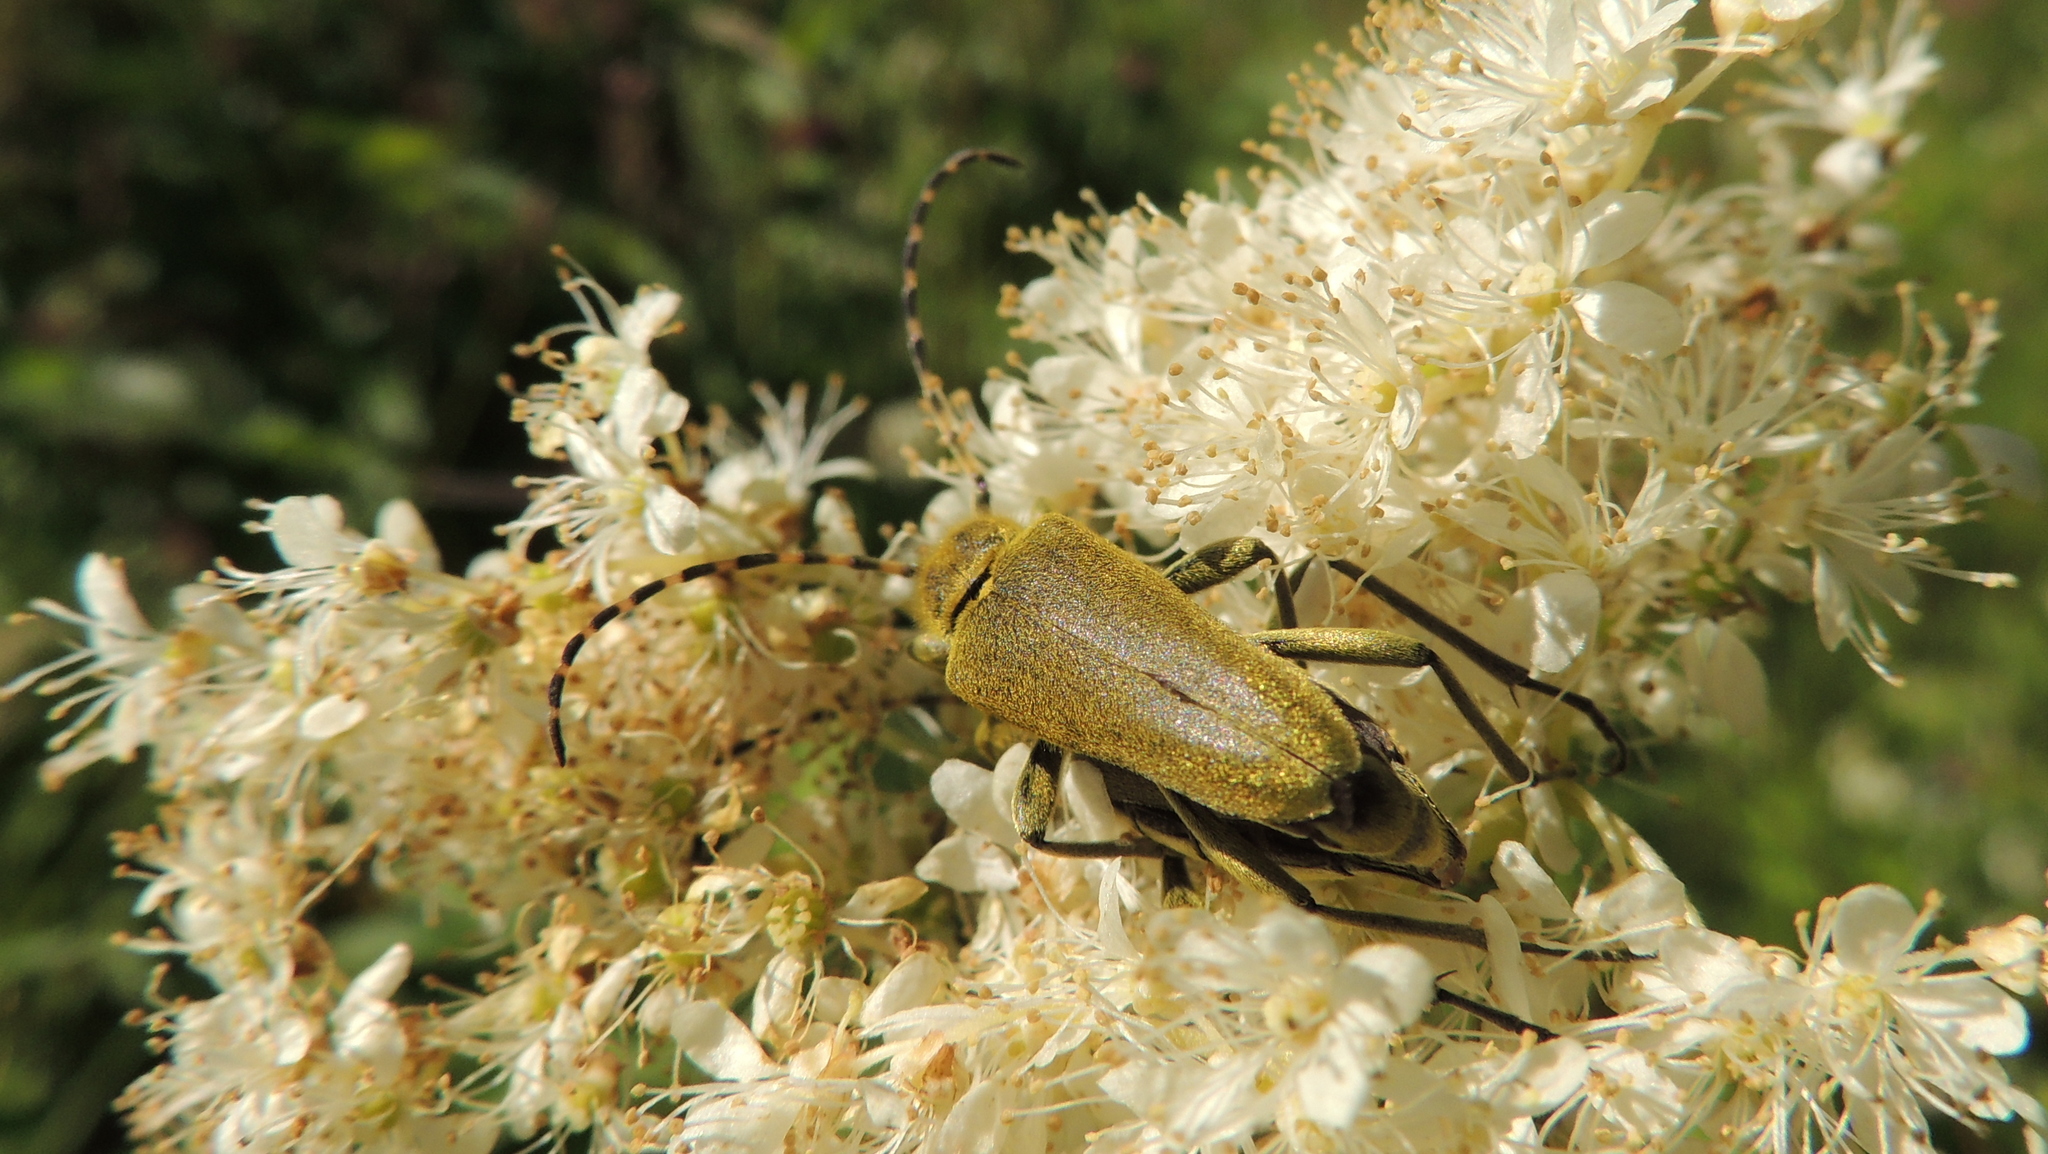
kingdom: Animalia
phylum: Arthropoda
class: Insecta
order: Coleoptera
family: Cerambycidae
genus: Lepturobosca
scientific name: Lepturobosca virens
